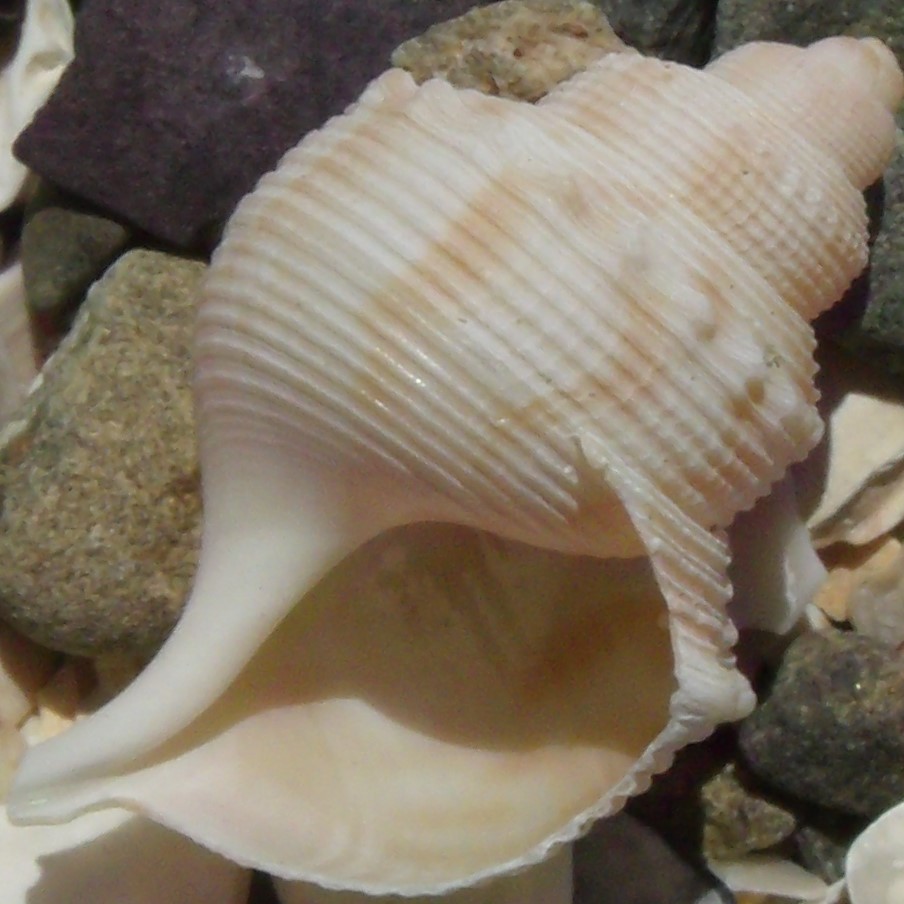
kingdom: Animalia
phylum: Mollusca
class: Gastropoda
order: Littorinimorpha
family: Struthiolariidae
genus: Struthiolaria
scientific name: Struthiolaria papulosa
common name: Large ostrich foot
